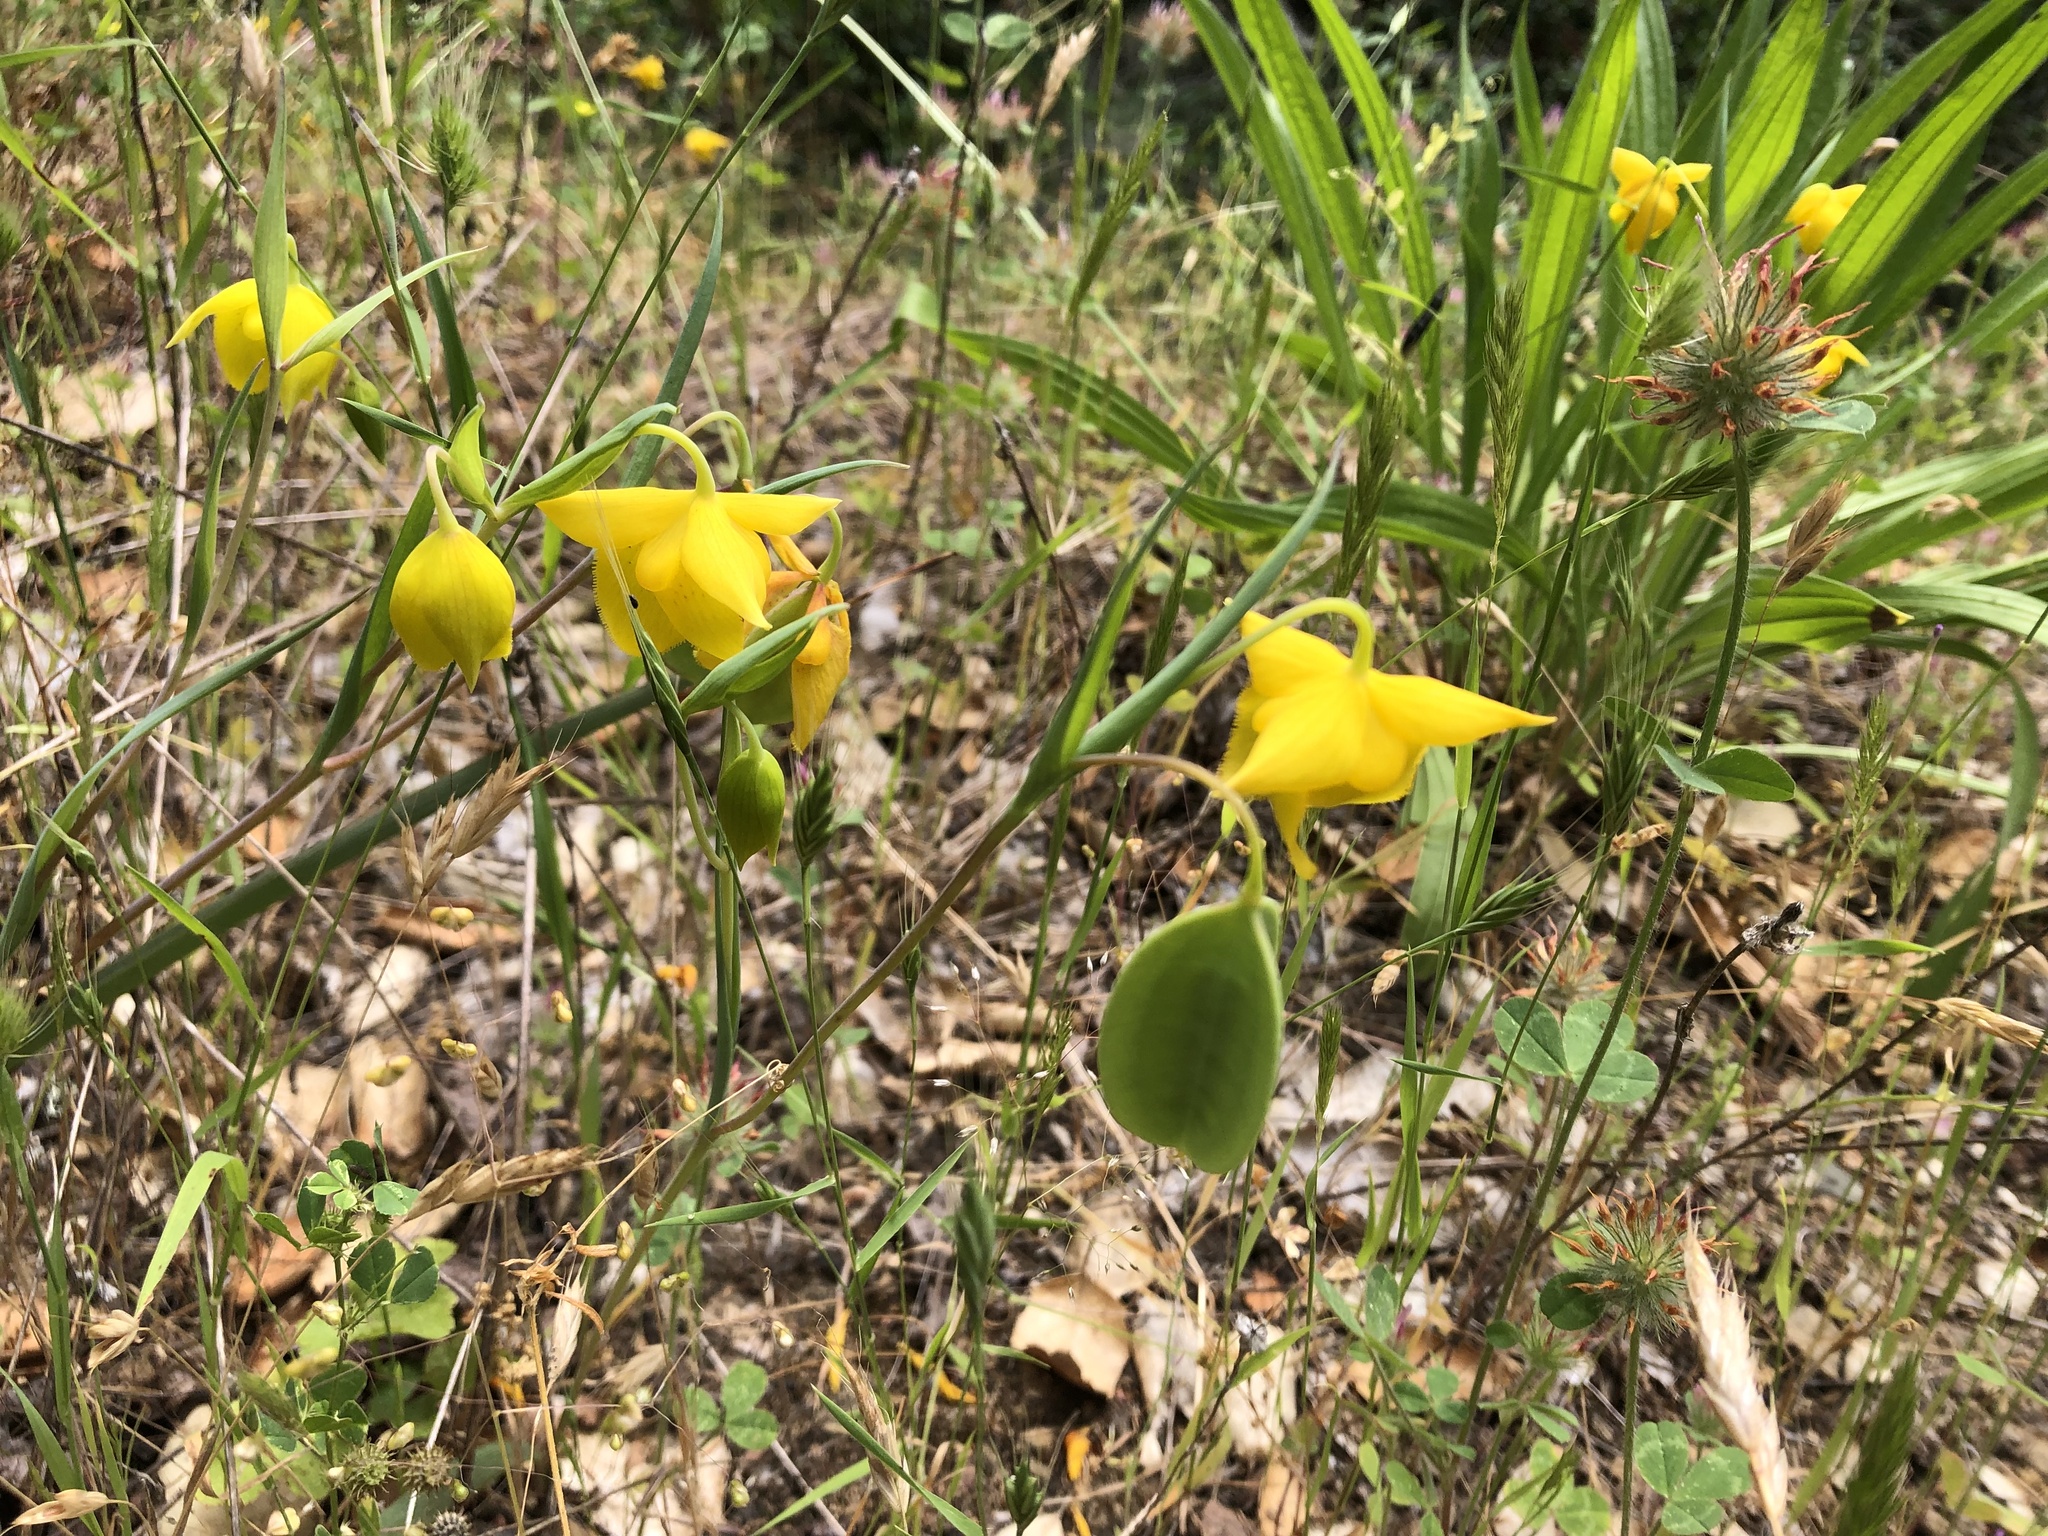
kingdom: Plantae
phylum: Tracheophyta
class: Liliopsida
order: Liliales
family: Liliaceae
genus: Calochortus
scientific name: Calochortus amabilis
